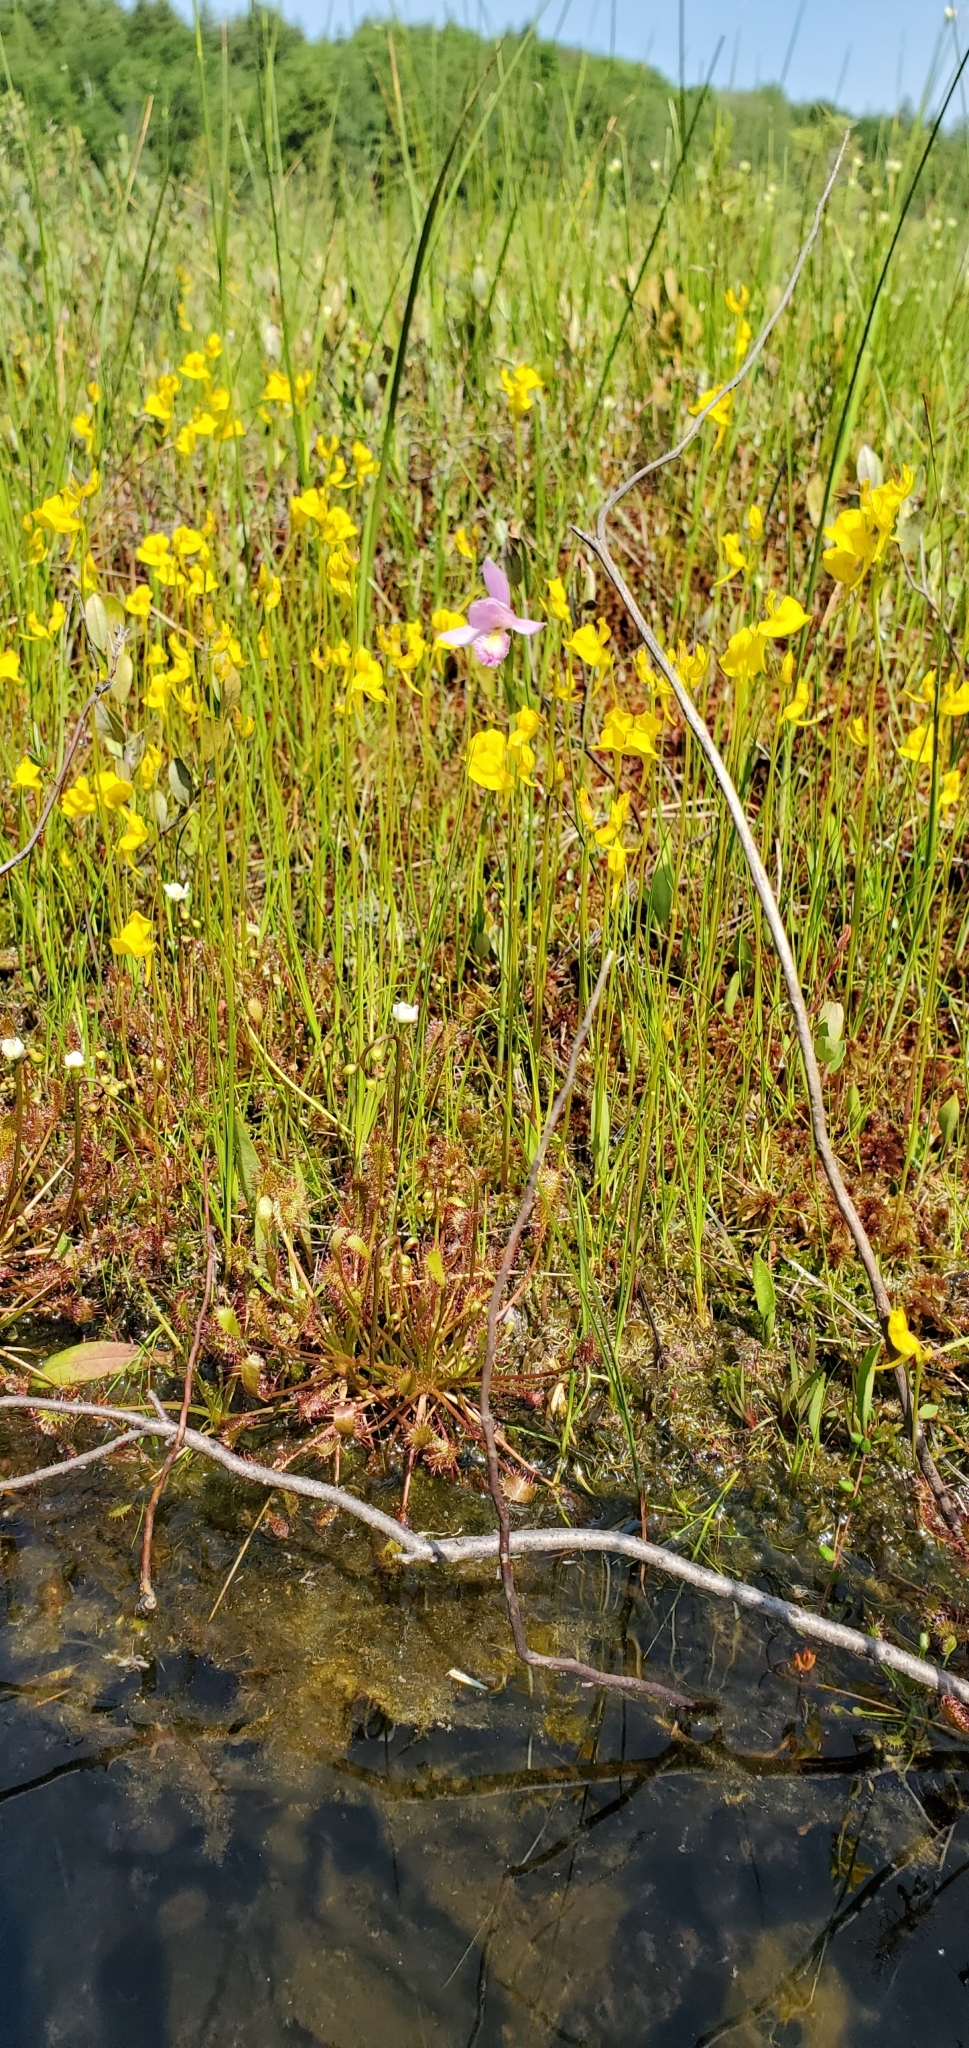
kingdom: Plantae
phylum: Tracheophyta
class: Magnoliopsida
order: Lamiales
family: Lentibulariaceae
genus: Utricularia
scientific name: Utricularia cornuta
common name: Horned bladderwort
